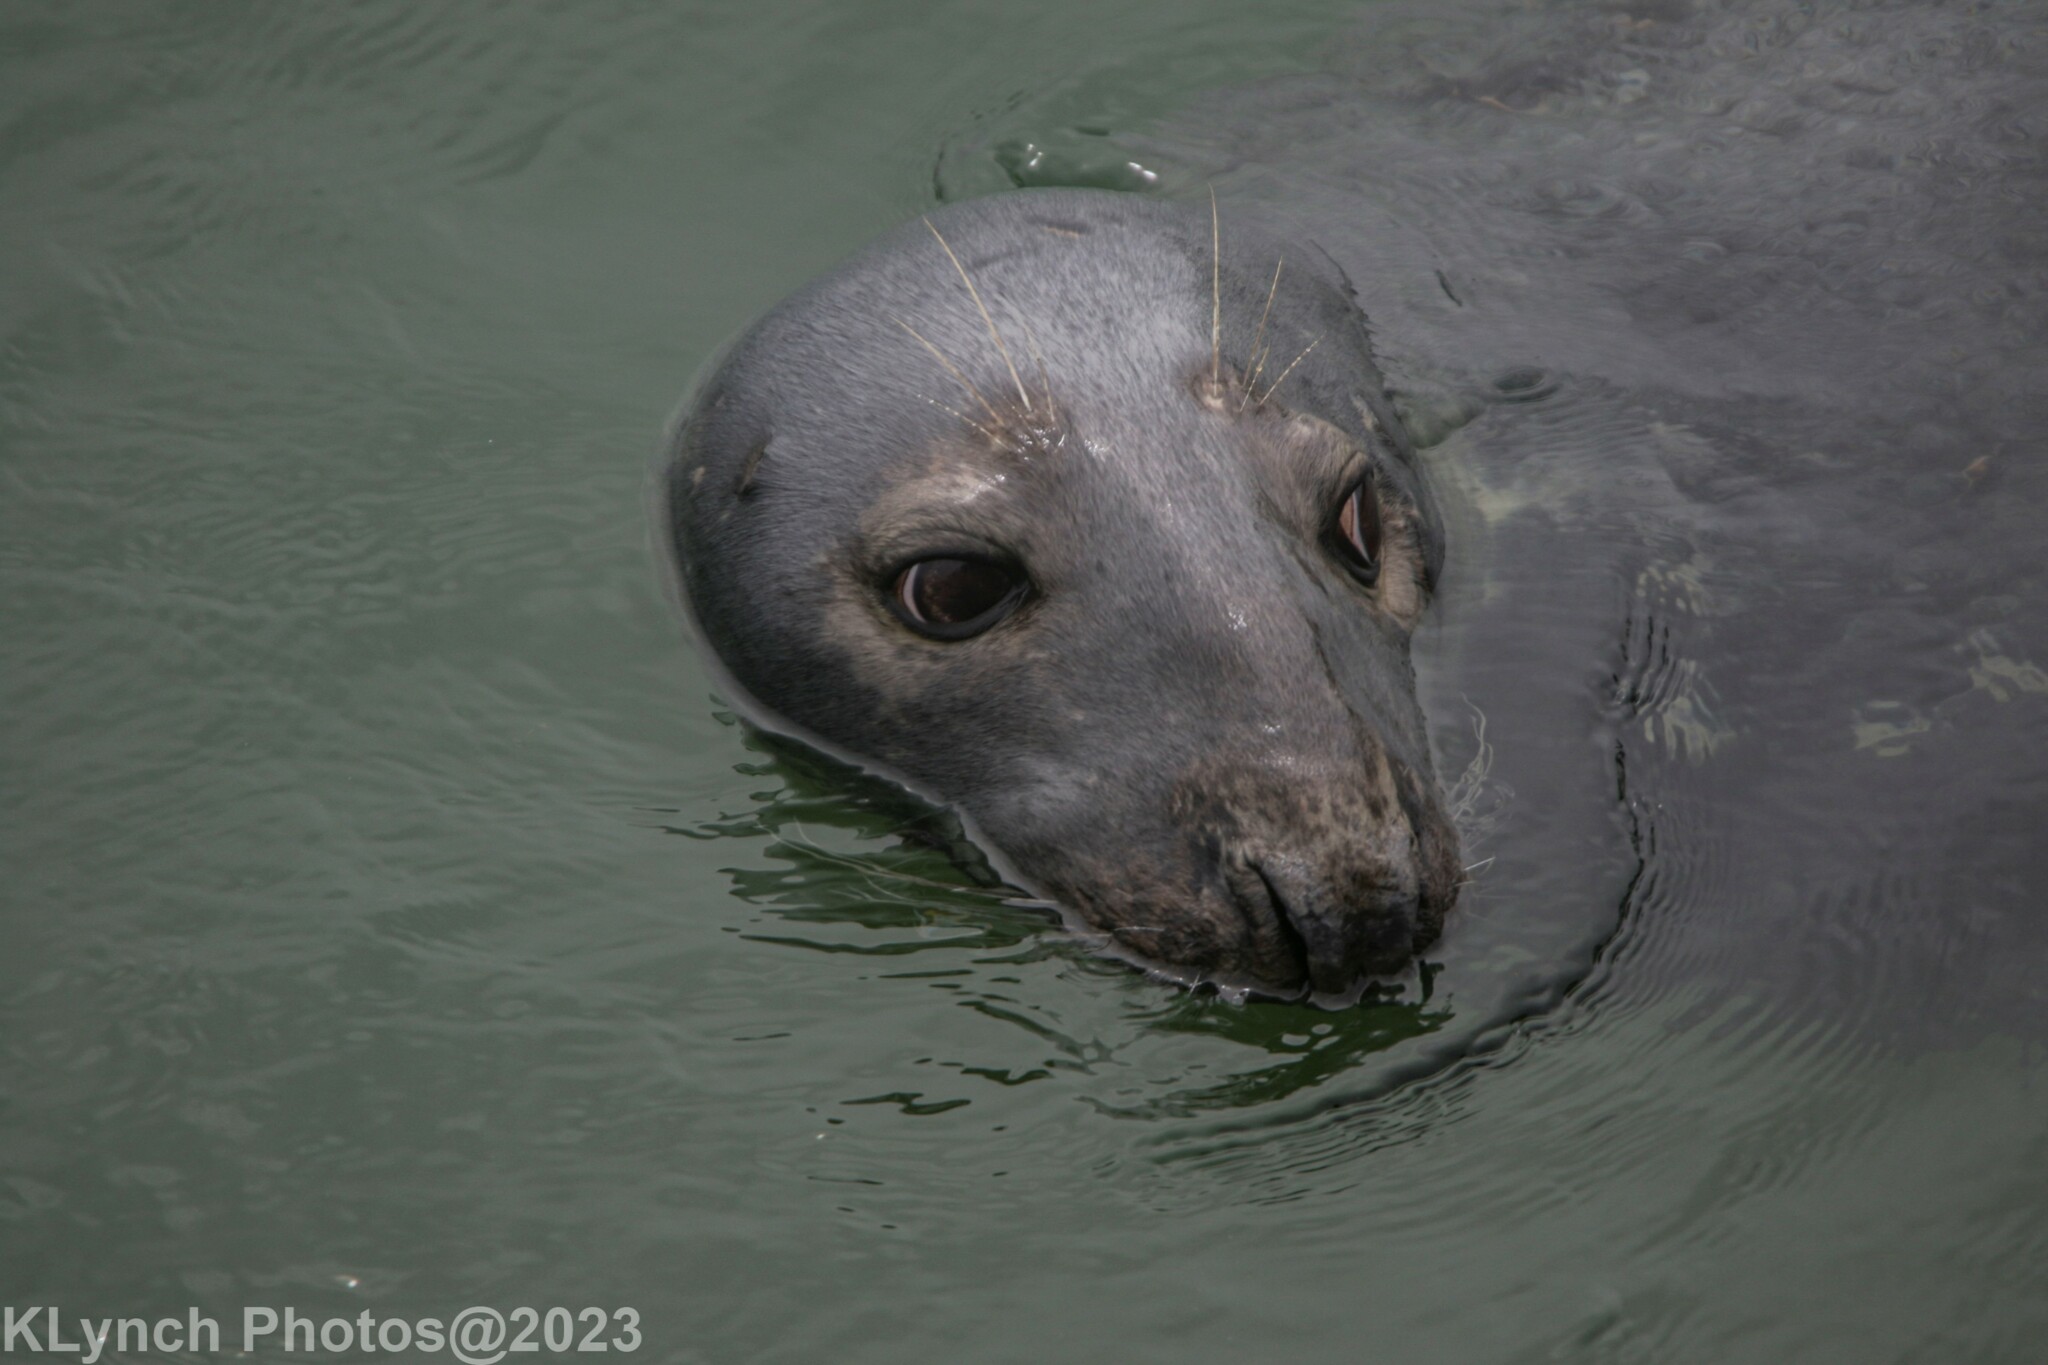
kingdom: Animalia
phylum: Chordata
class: Mammalia
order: Carnivora
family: Phocidae
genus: Halichoerus
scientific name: Halichoerus grypus
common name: Grey seal
